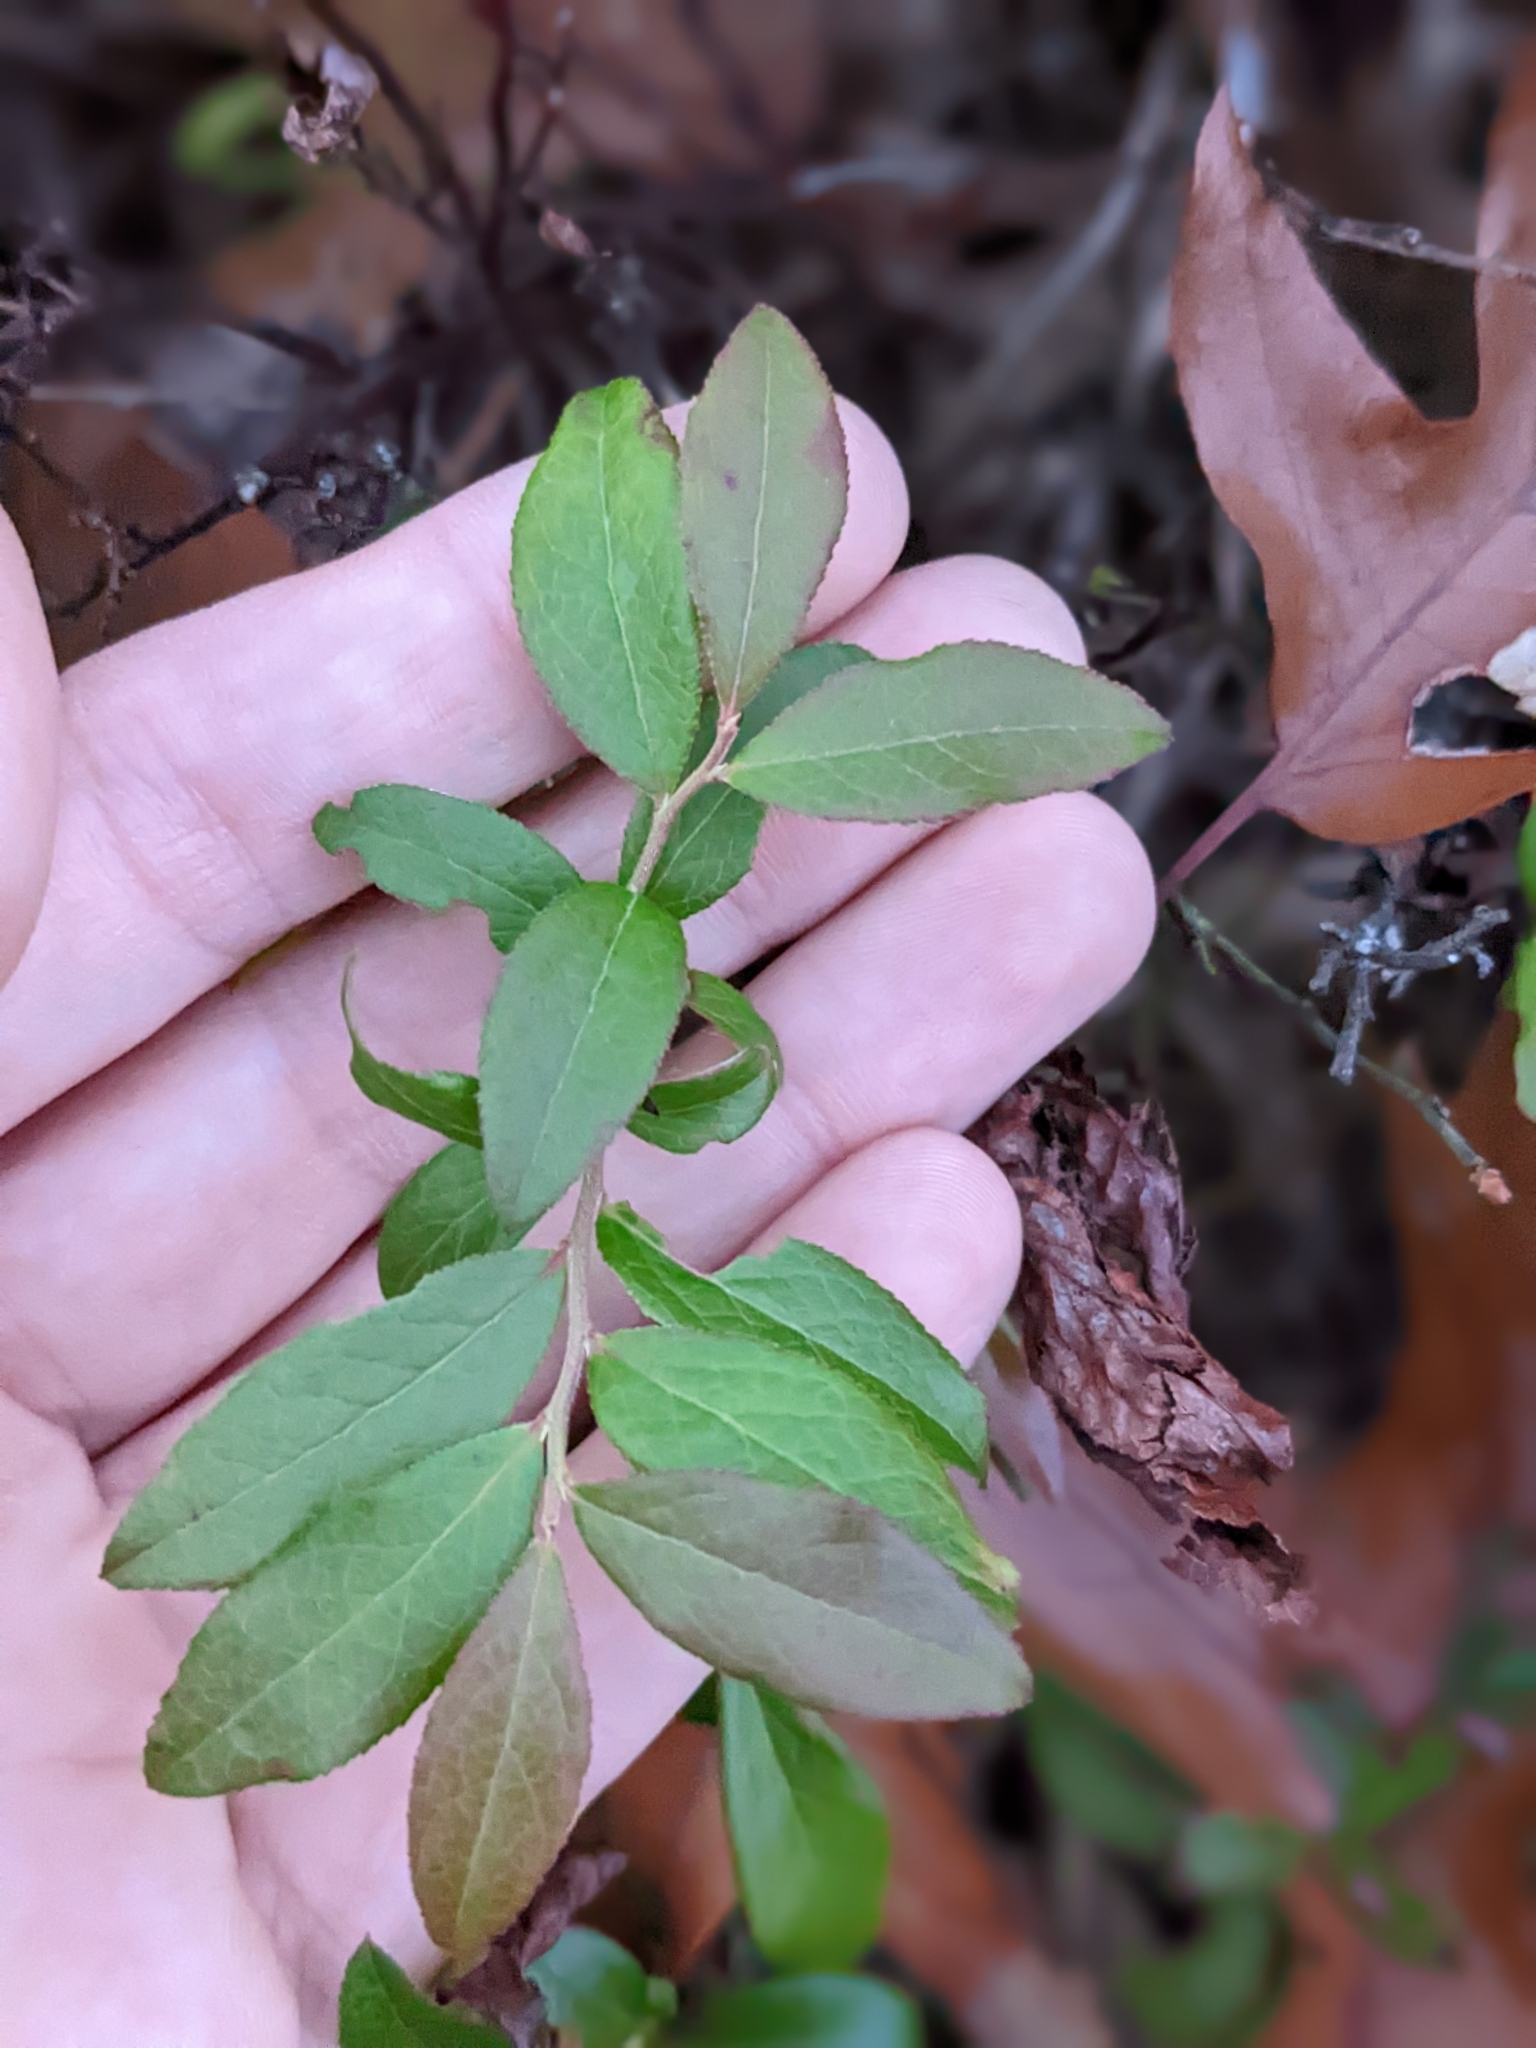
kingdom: Plantae
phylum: Tracheophyta
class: Magnoliopsida
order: Ericales
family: Ericaceae
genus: Vaccinium
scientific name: Vaccinium angustifolium
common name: Early lowbush blueberry
